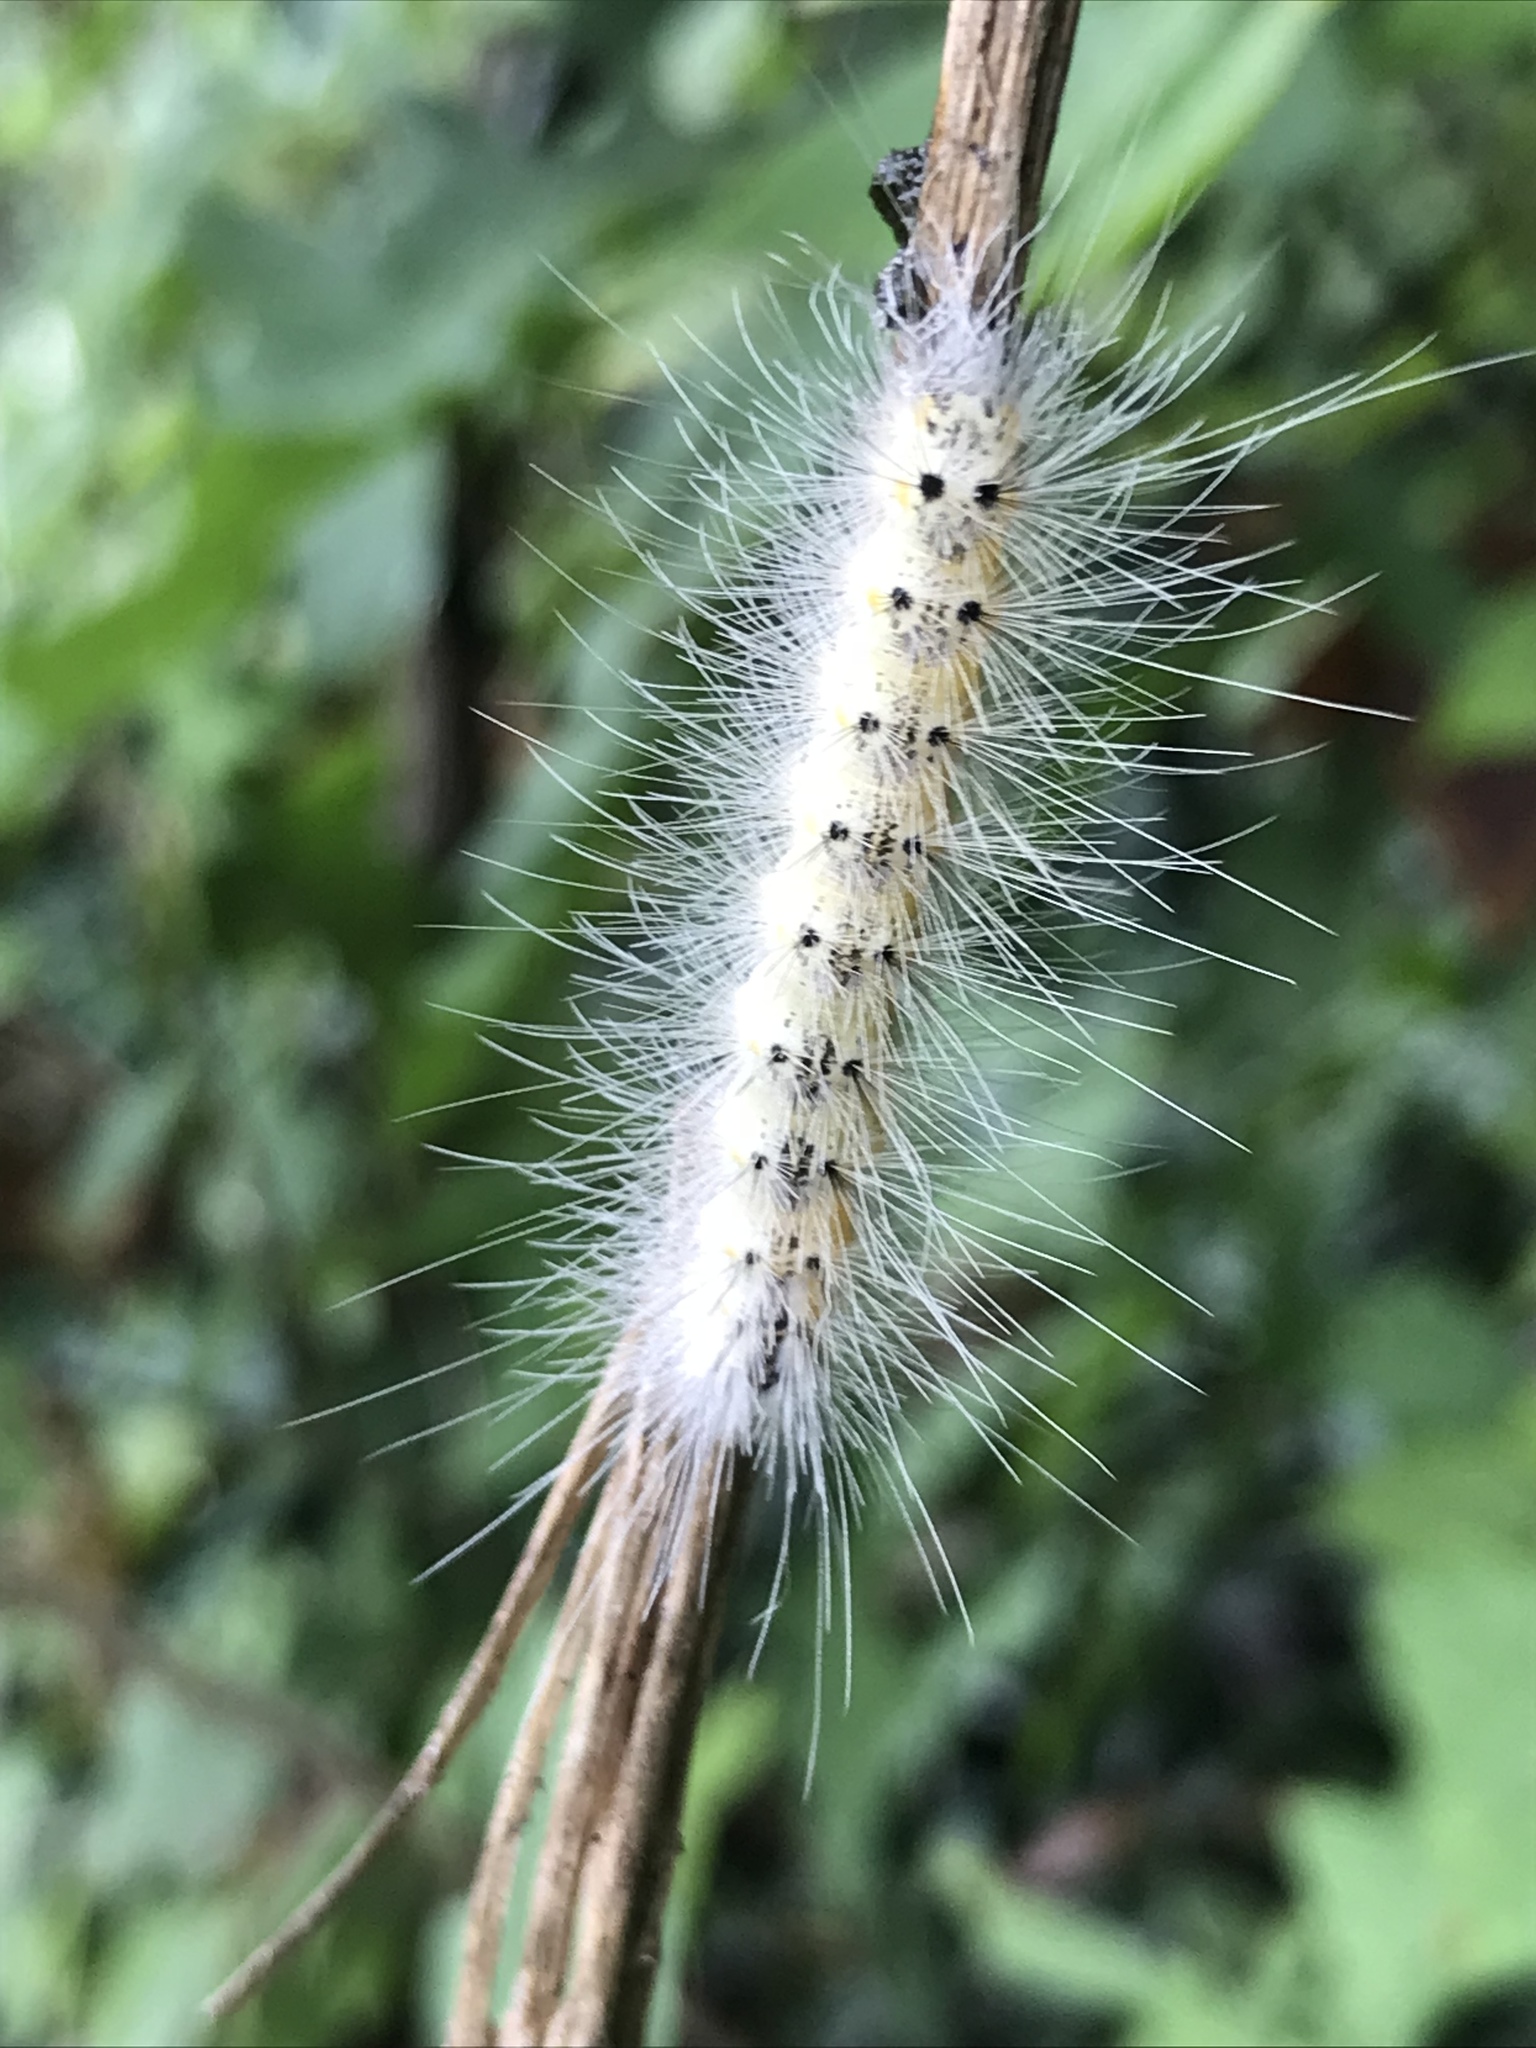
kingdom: Animalia
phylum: Arthropoda
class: Insecta
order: Lepidoptera
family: Erebidae
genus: Hyphantria
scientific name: Hyphantria cunea
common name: American white moth
